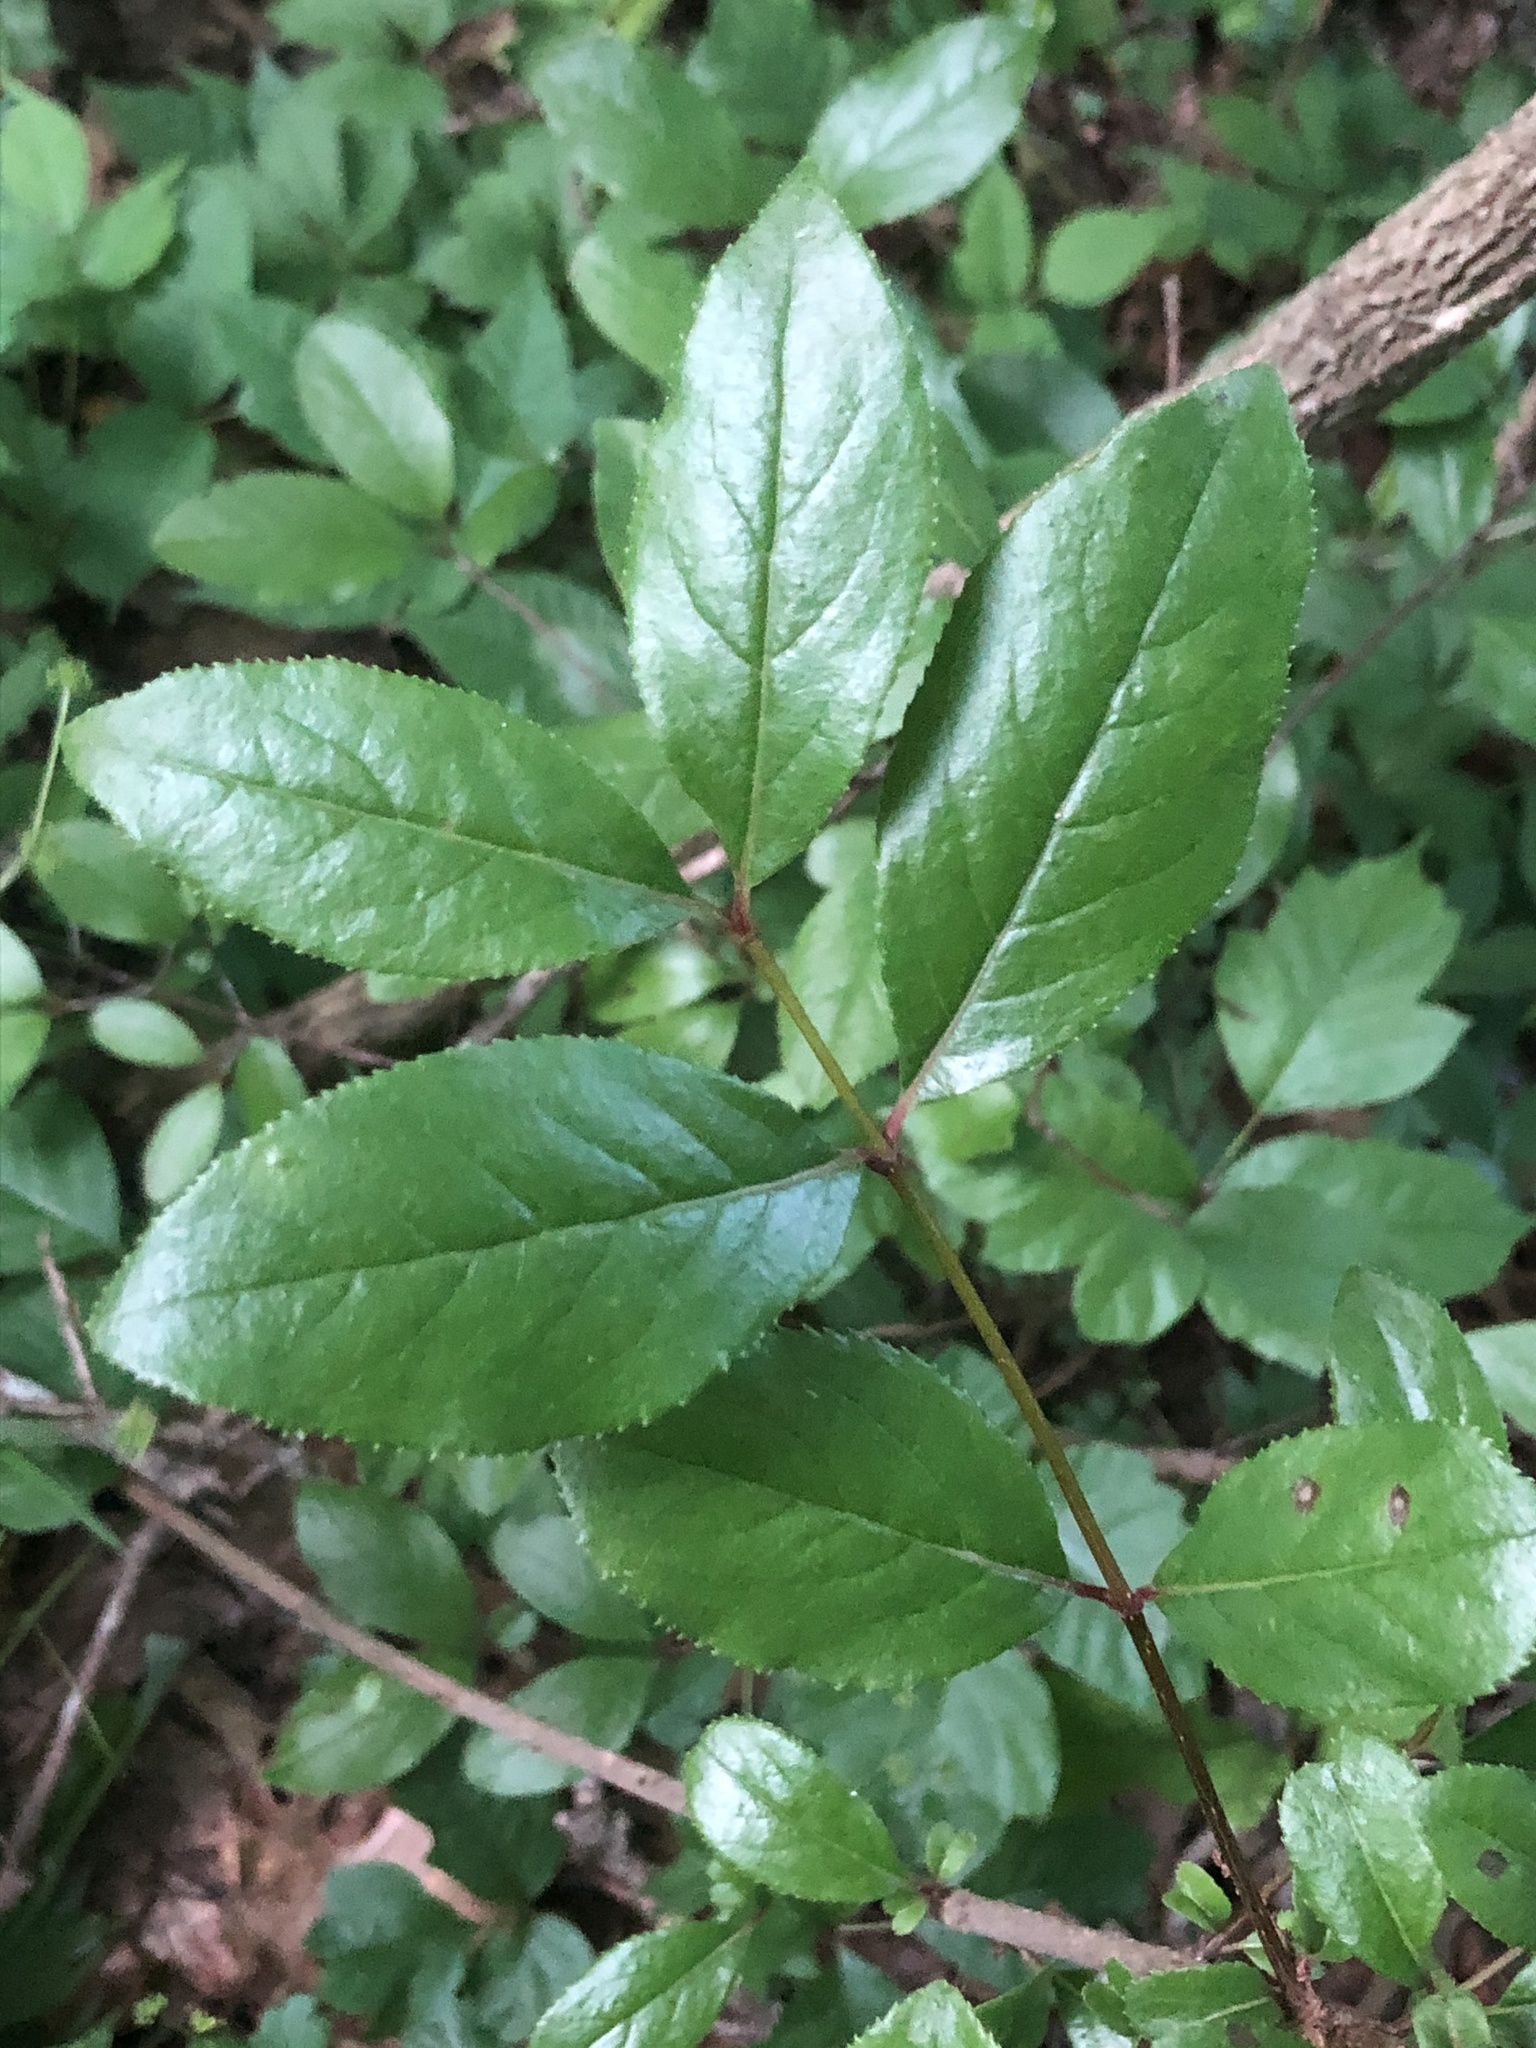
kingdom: Plantae
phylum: Tracheophyta
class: Magnoliopsida
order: Dipsacales
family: Viburnaceae
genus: Viburnum
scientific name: Viburnum rufidulum
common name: Blue haw
